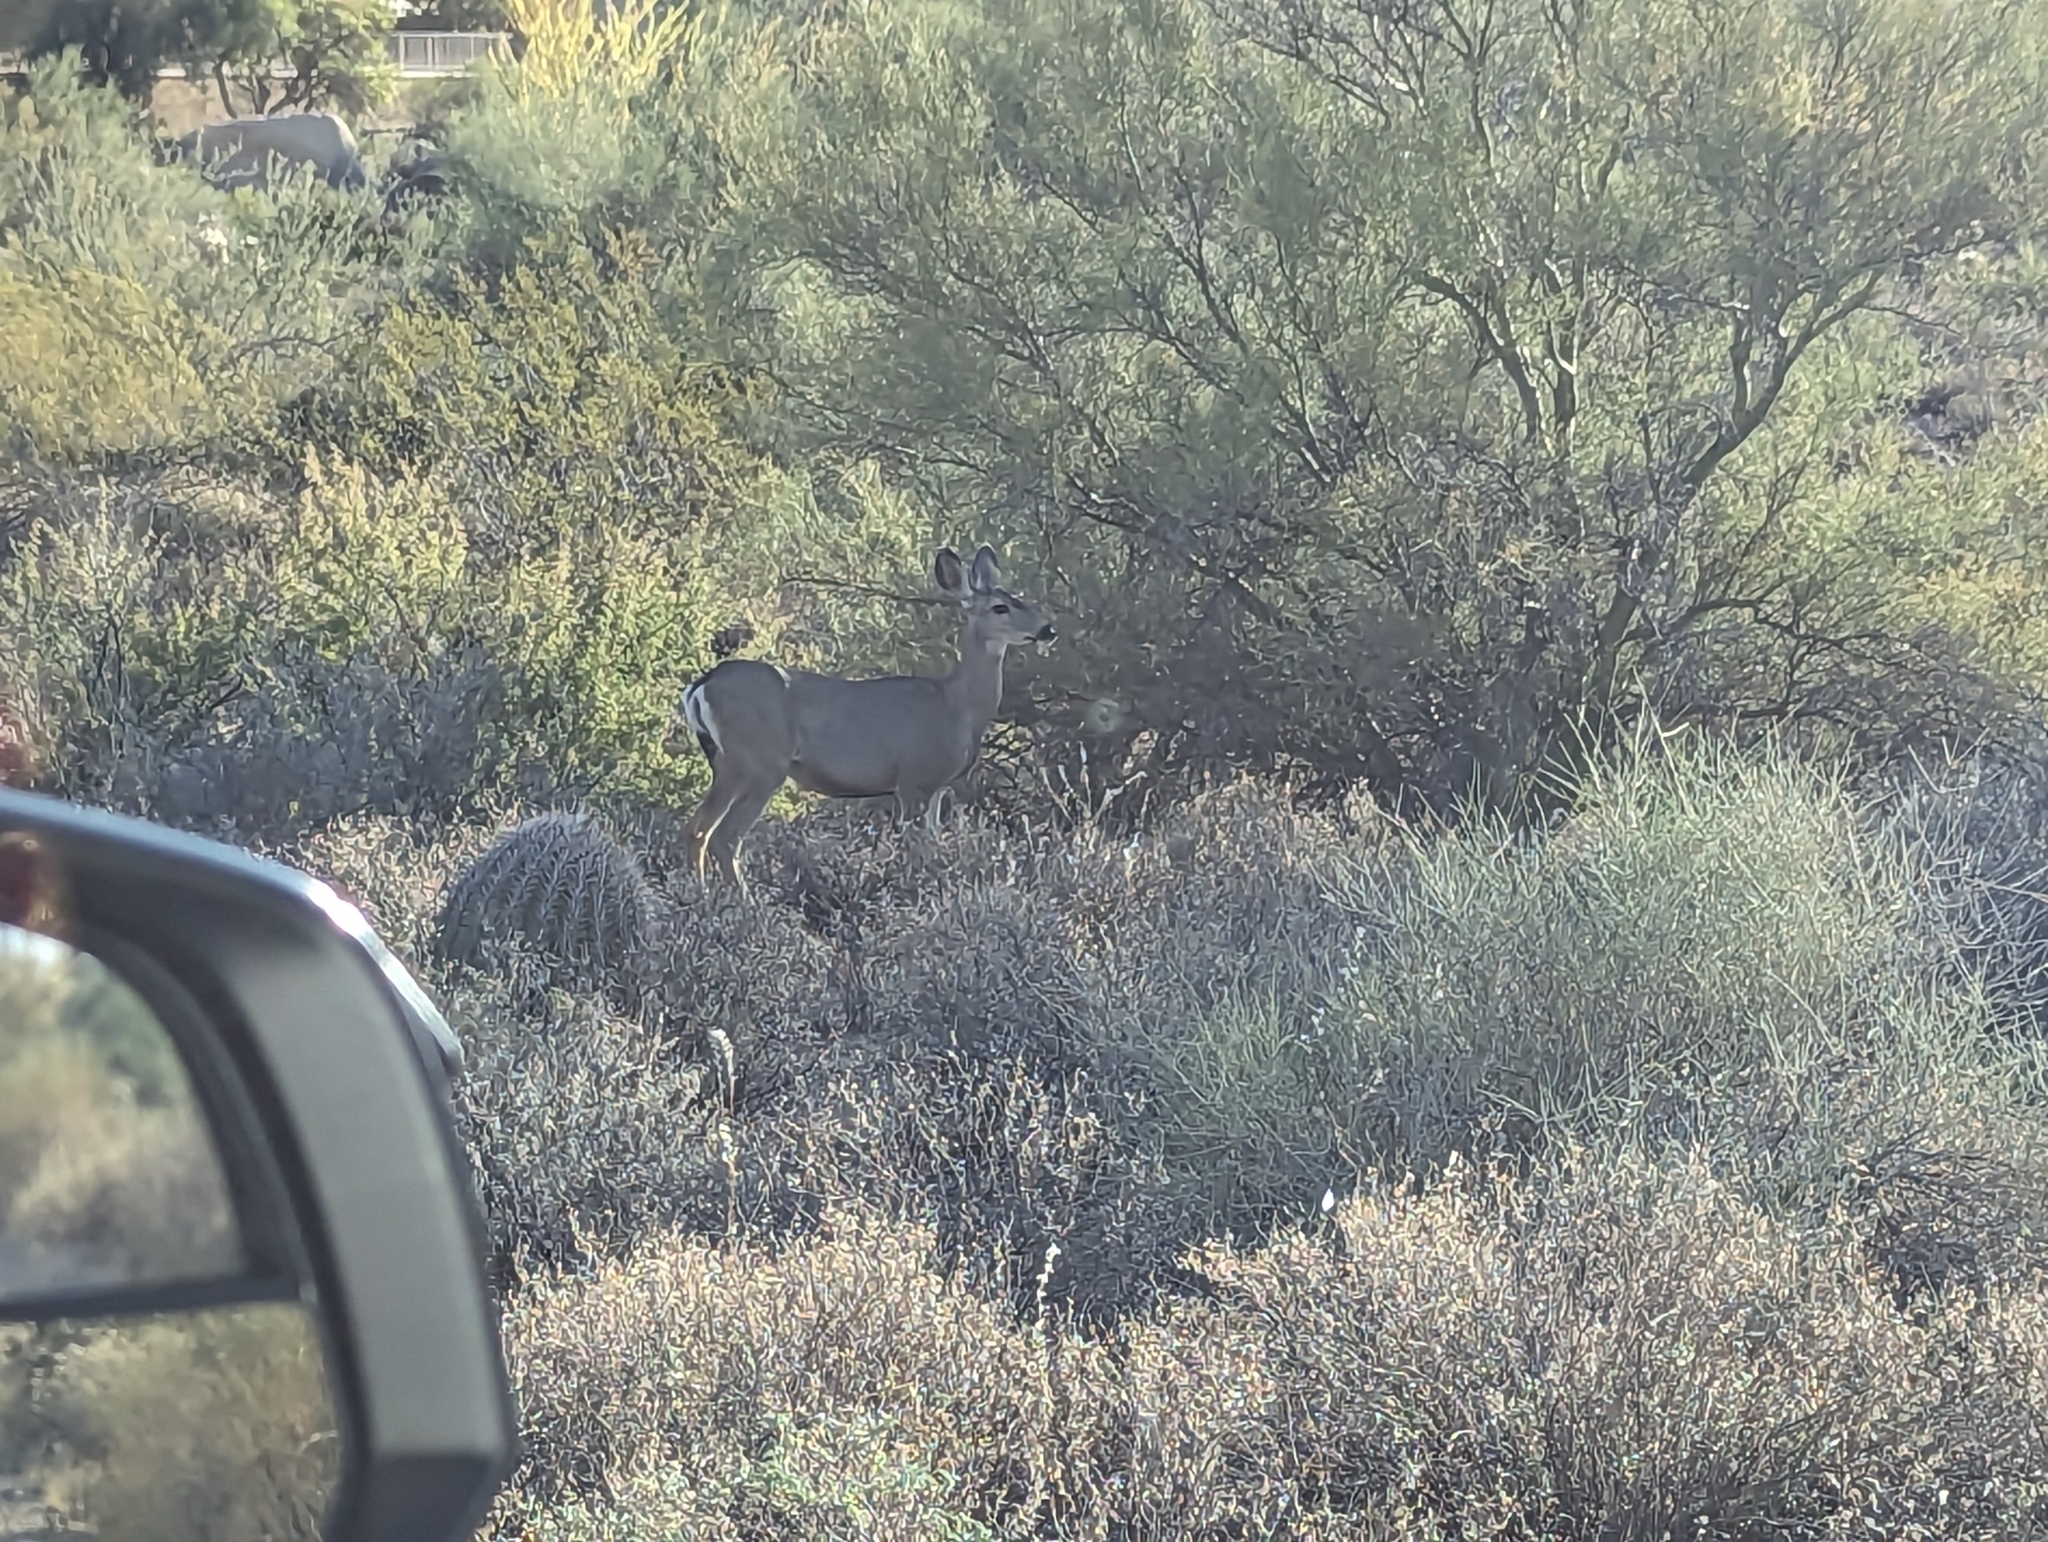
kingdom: Animalia
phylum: Chordata
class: Mammalia
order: Artiodactyla
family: Cervidae
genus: Odocoileus
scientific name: Odocoileus hemionus
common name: Mule deer
